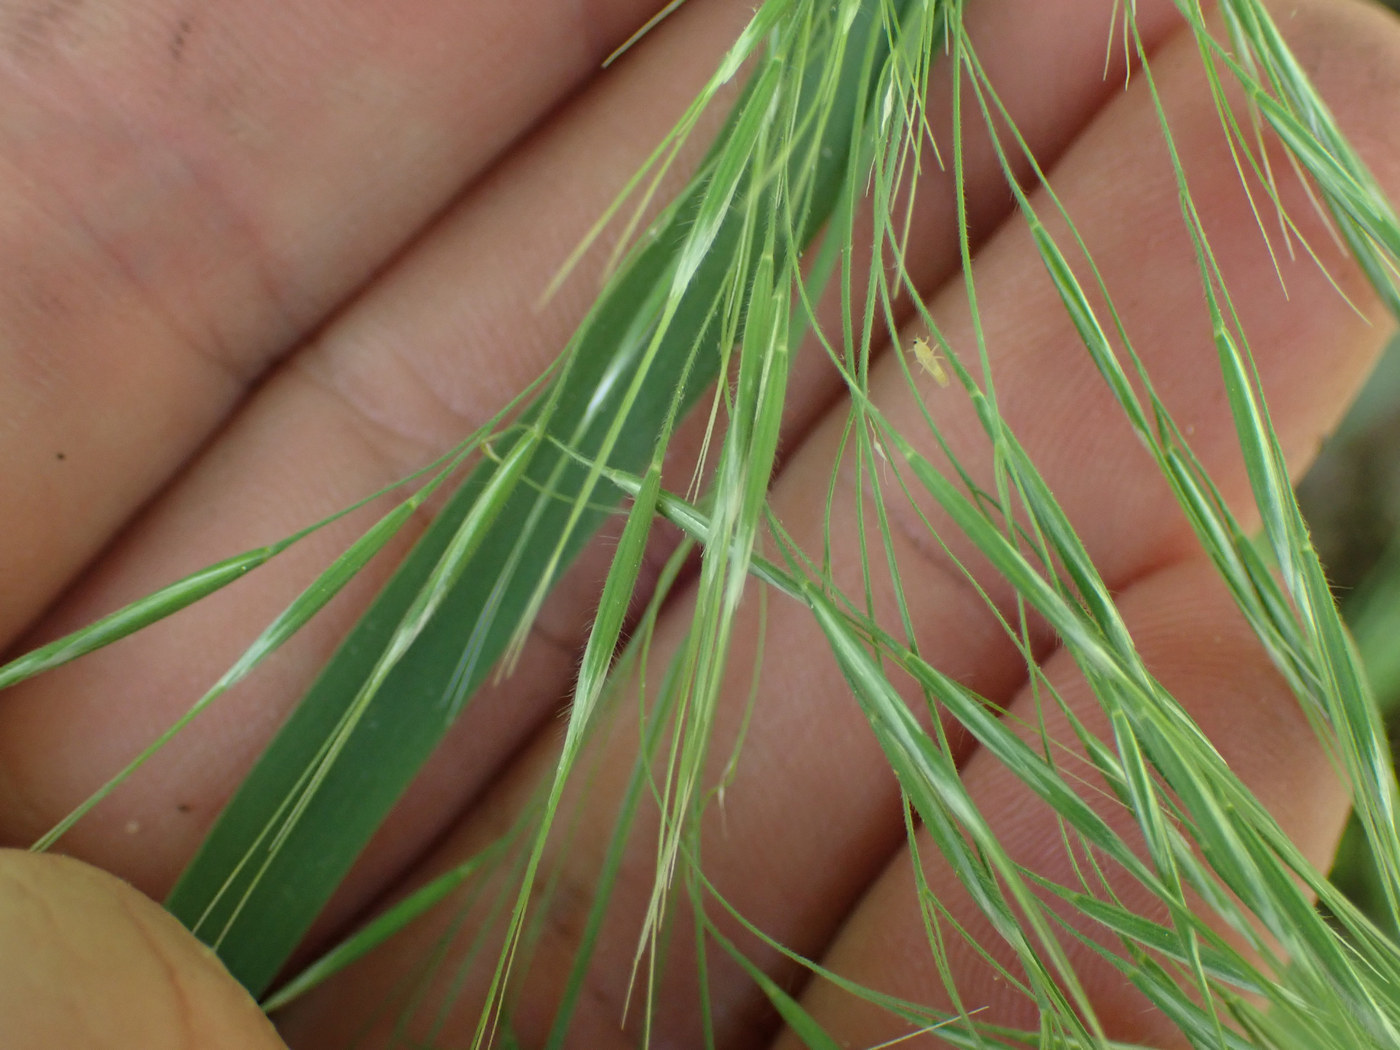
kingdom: Plantae
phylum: Tracheophyta
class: Liliopsida
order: Poales
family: Poaceae
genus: Bromus
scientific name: Bromus tectorum
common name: Cheatgrass
